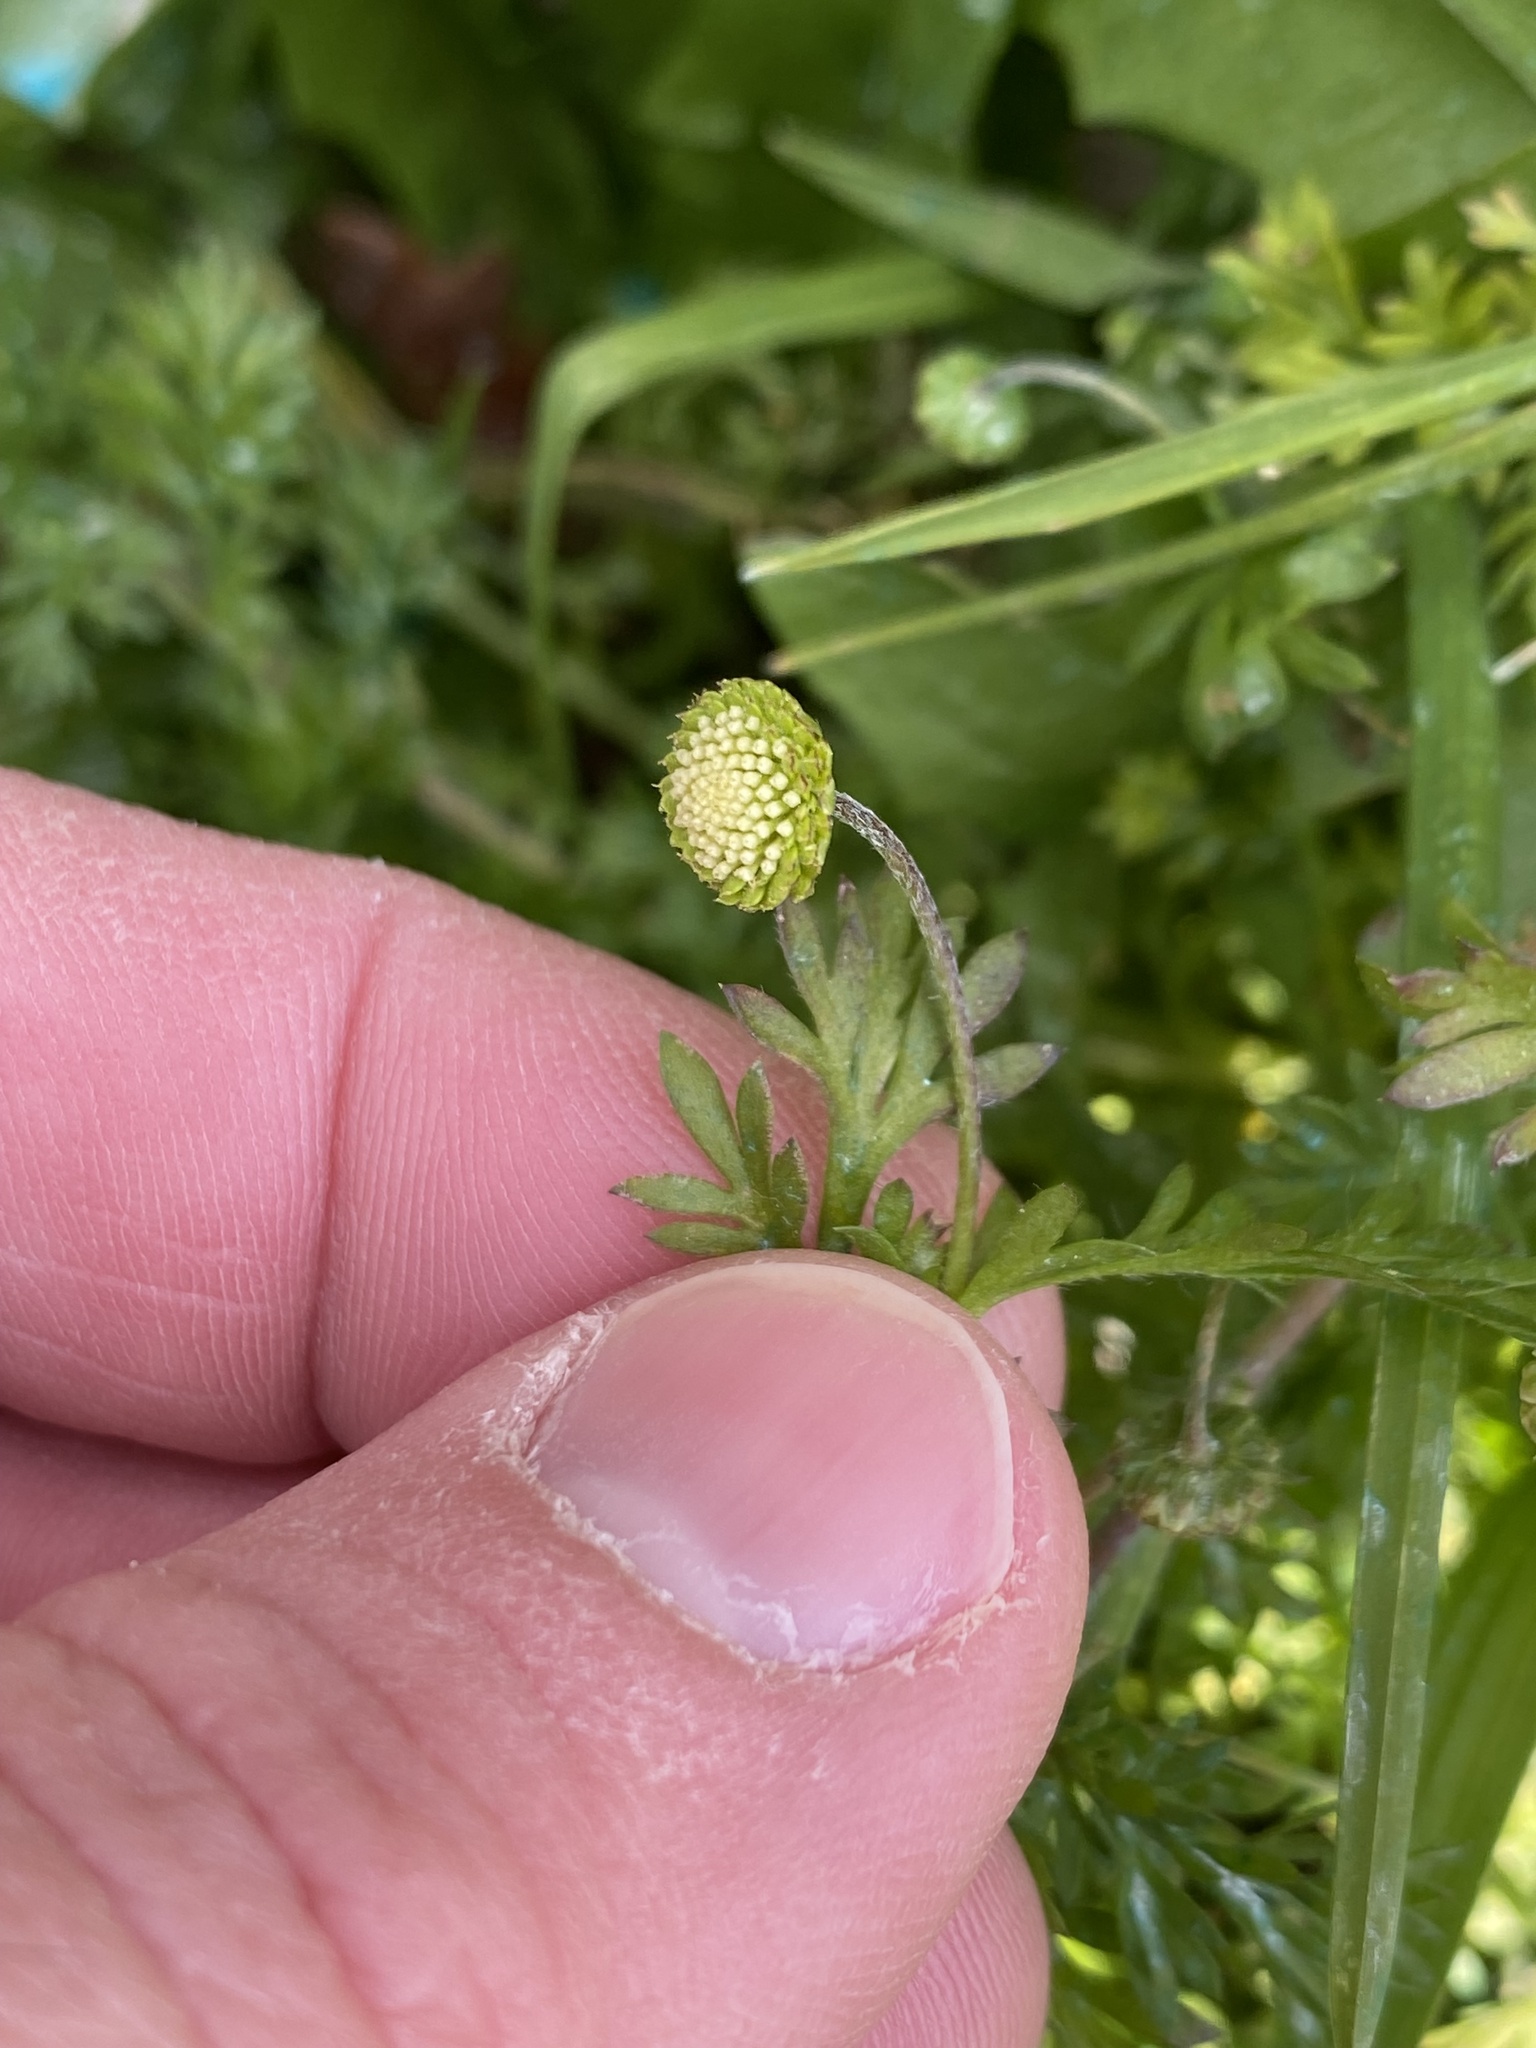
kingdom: Plantae
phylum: Tracheophyta
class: Magnoliopsida
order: Asterales
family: Asteraceae
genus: Cotula
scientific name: Cotula australis
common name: Australian waterbuttons
